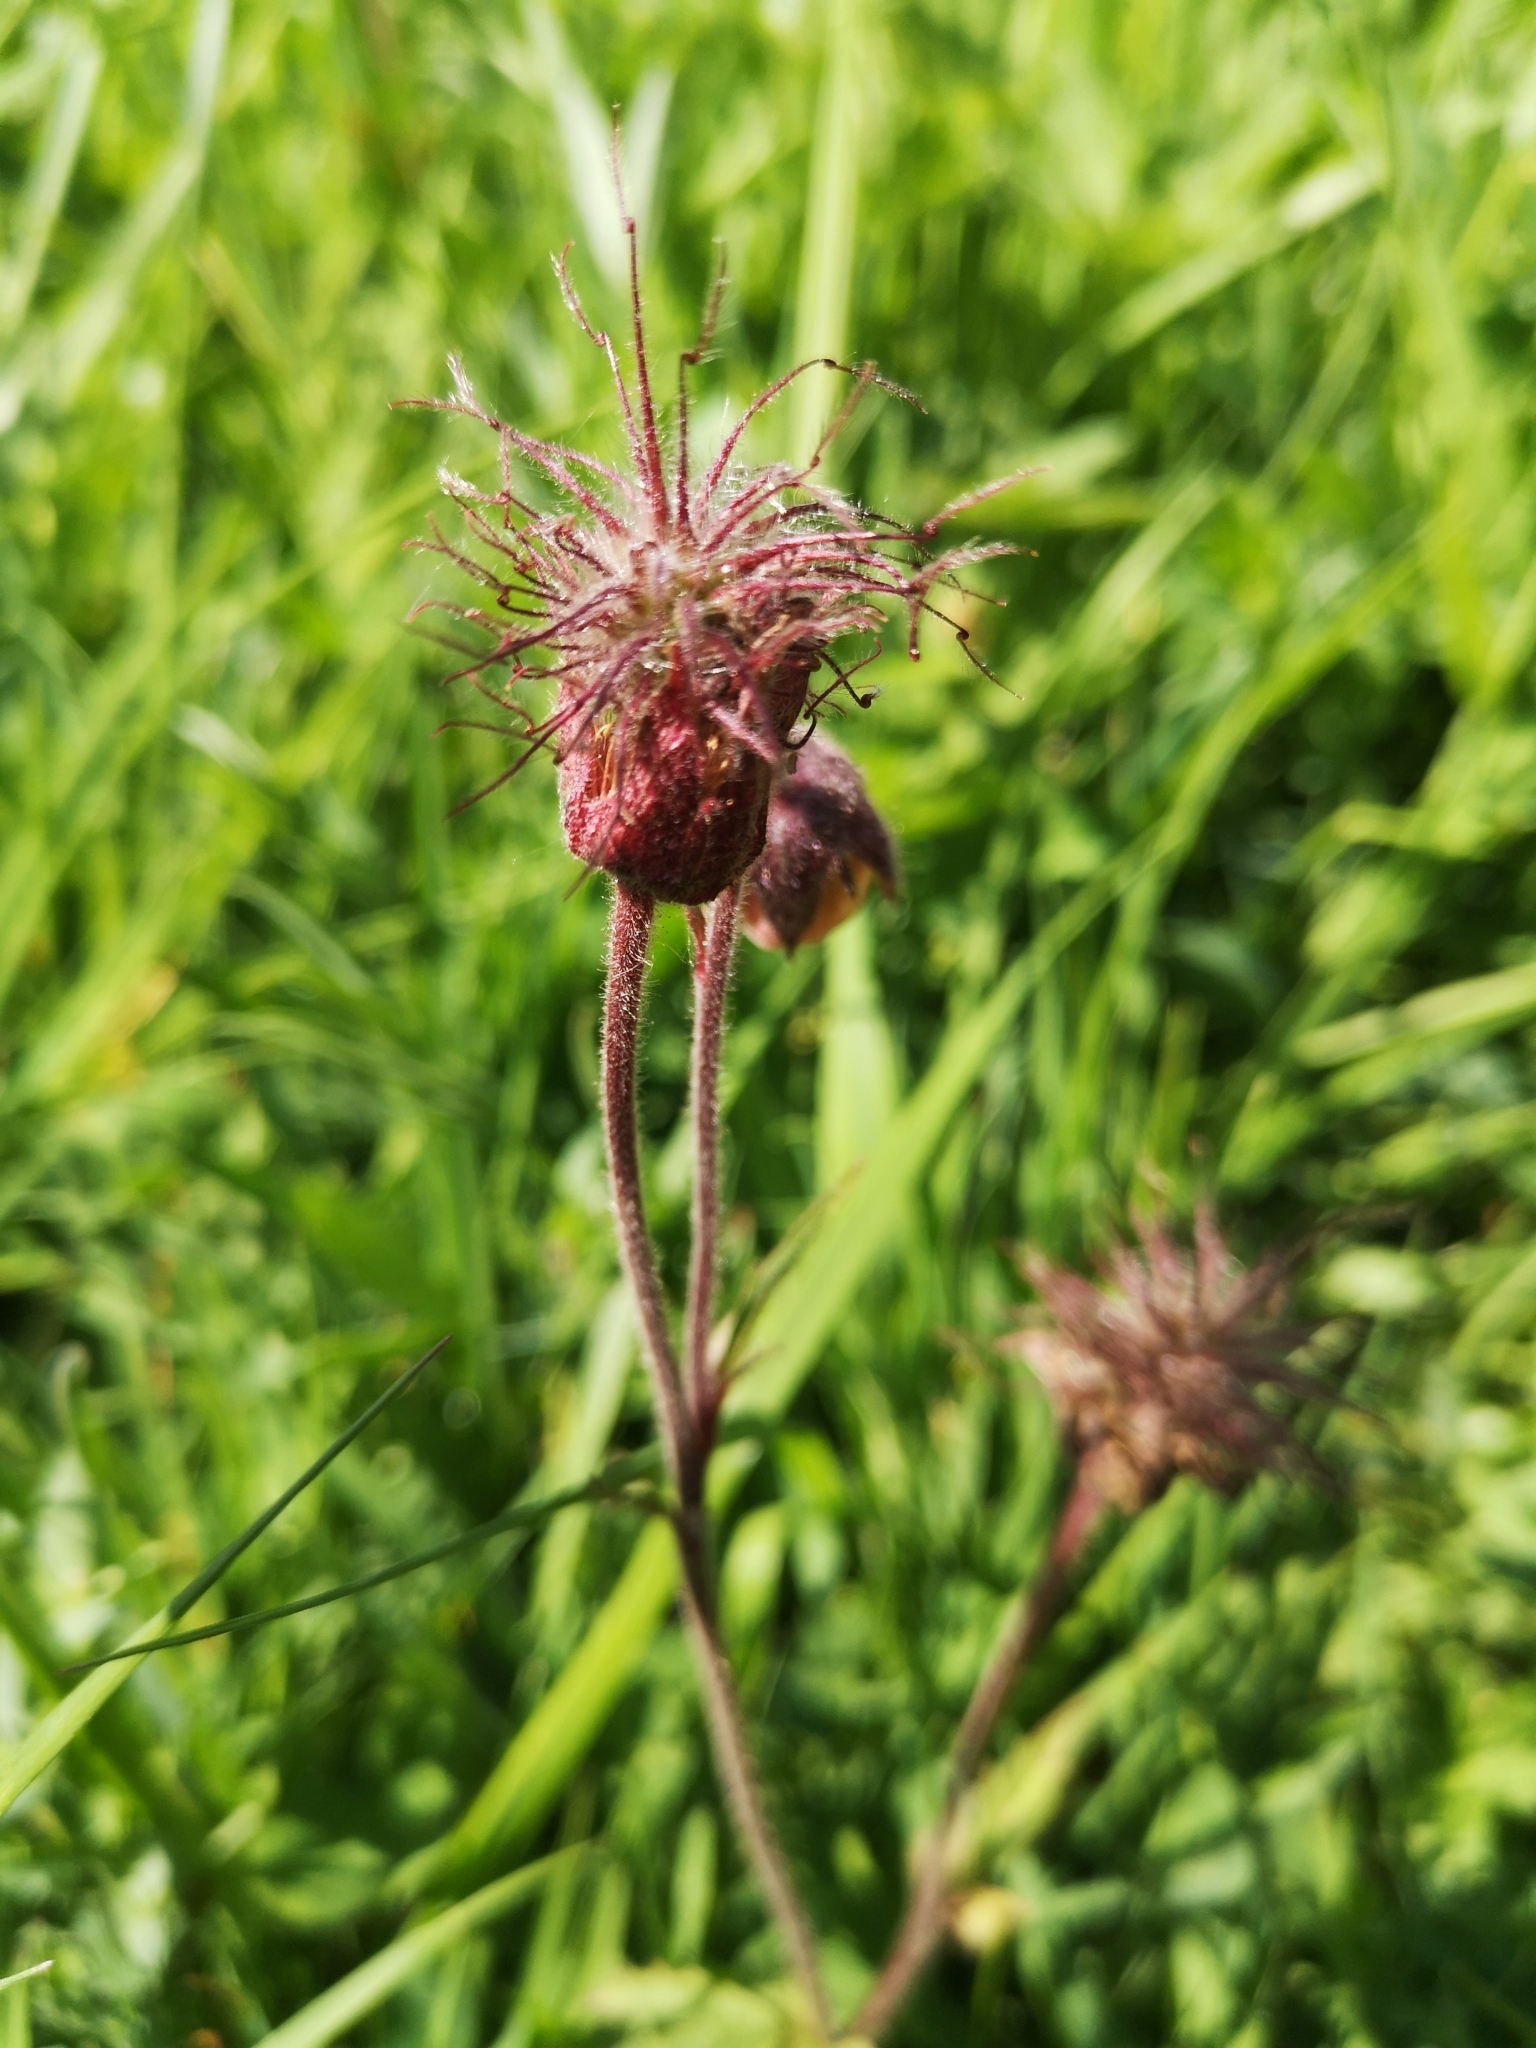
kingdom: Plantae
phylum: Tracheophyta
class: Magnoliopsida
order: Rosales
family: Rosaceae
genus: Geum
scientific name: Geum rivale
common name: Water avens
